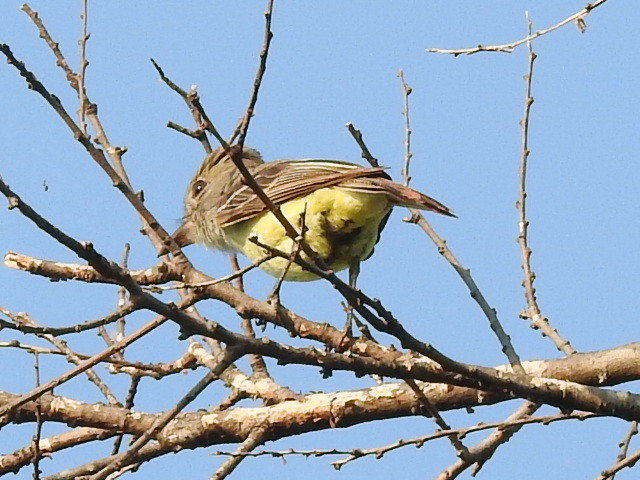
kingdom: Animalia
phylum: Chordata
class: Aves
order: Passeriformes
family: Tyrannidae
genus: Myiarchus
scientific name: Myiarchus crinitus
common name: Great crested flycatcher
